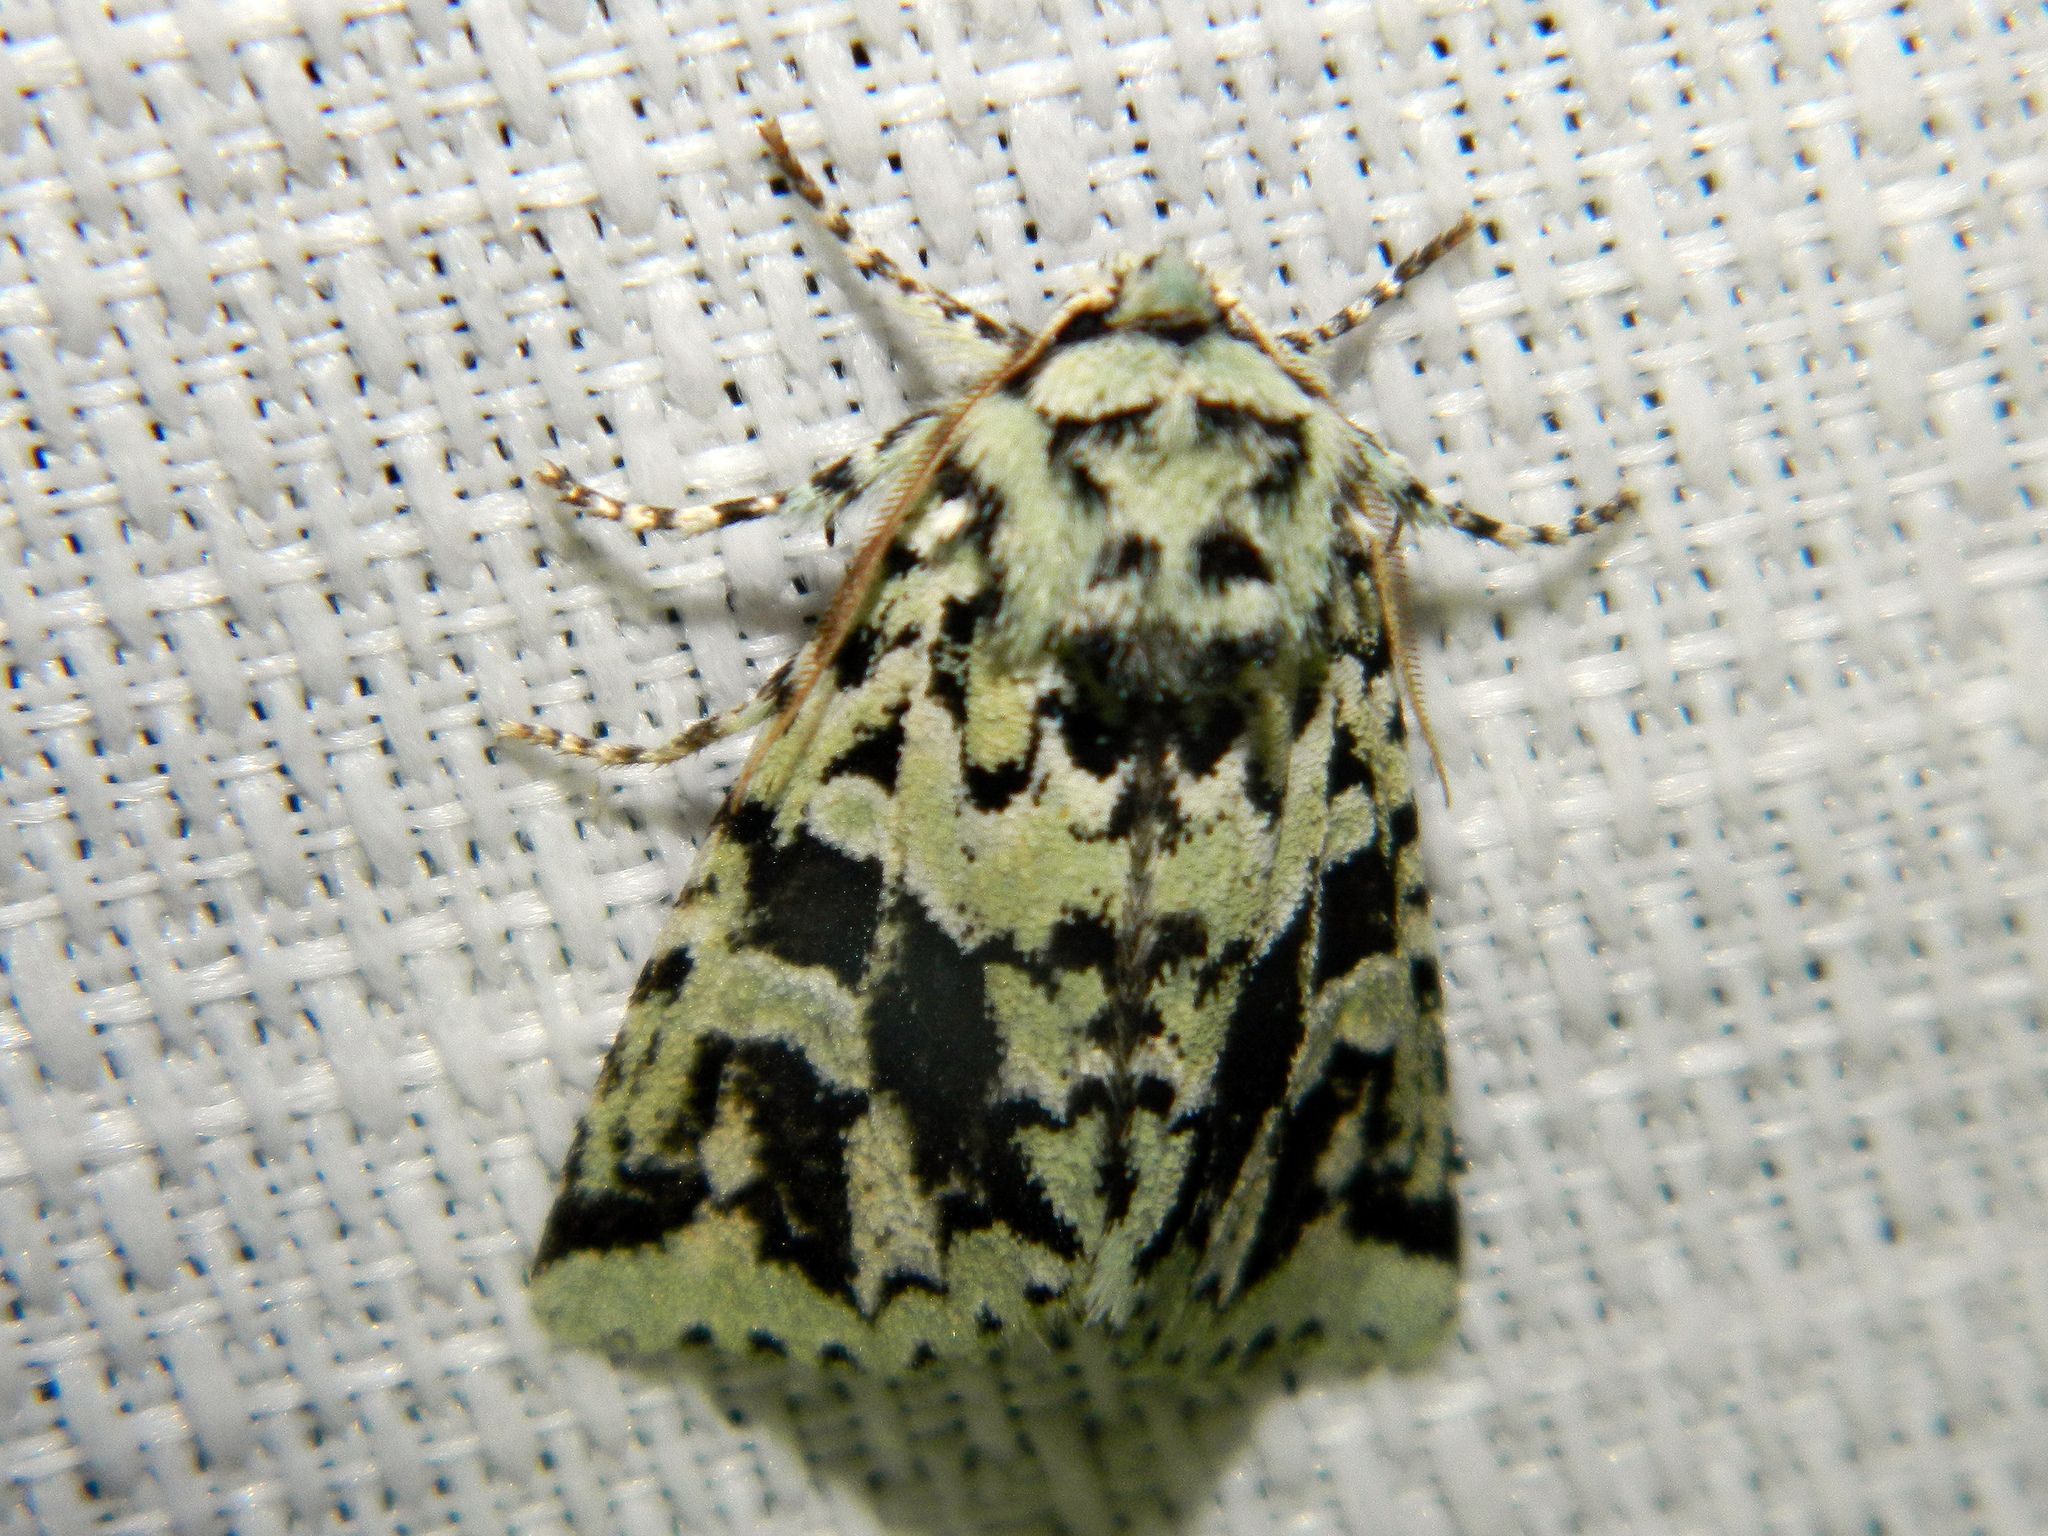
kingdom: Animalia
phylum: Arthropoda
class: Insecta
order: Lepidoptera
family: Noctuidae
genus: Feralia
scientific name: Feralia comstocki
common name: Comstock's sallow
